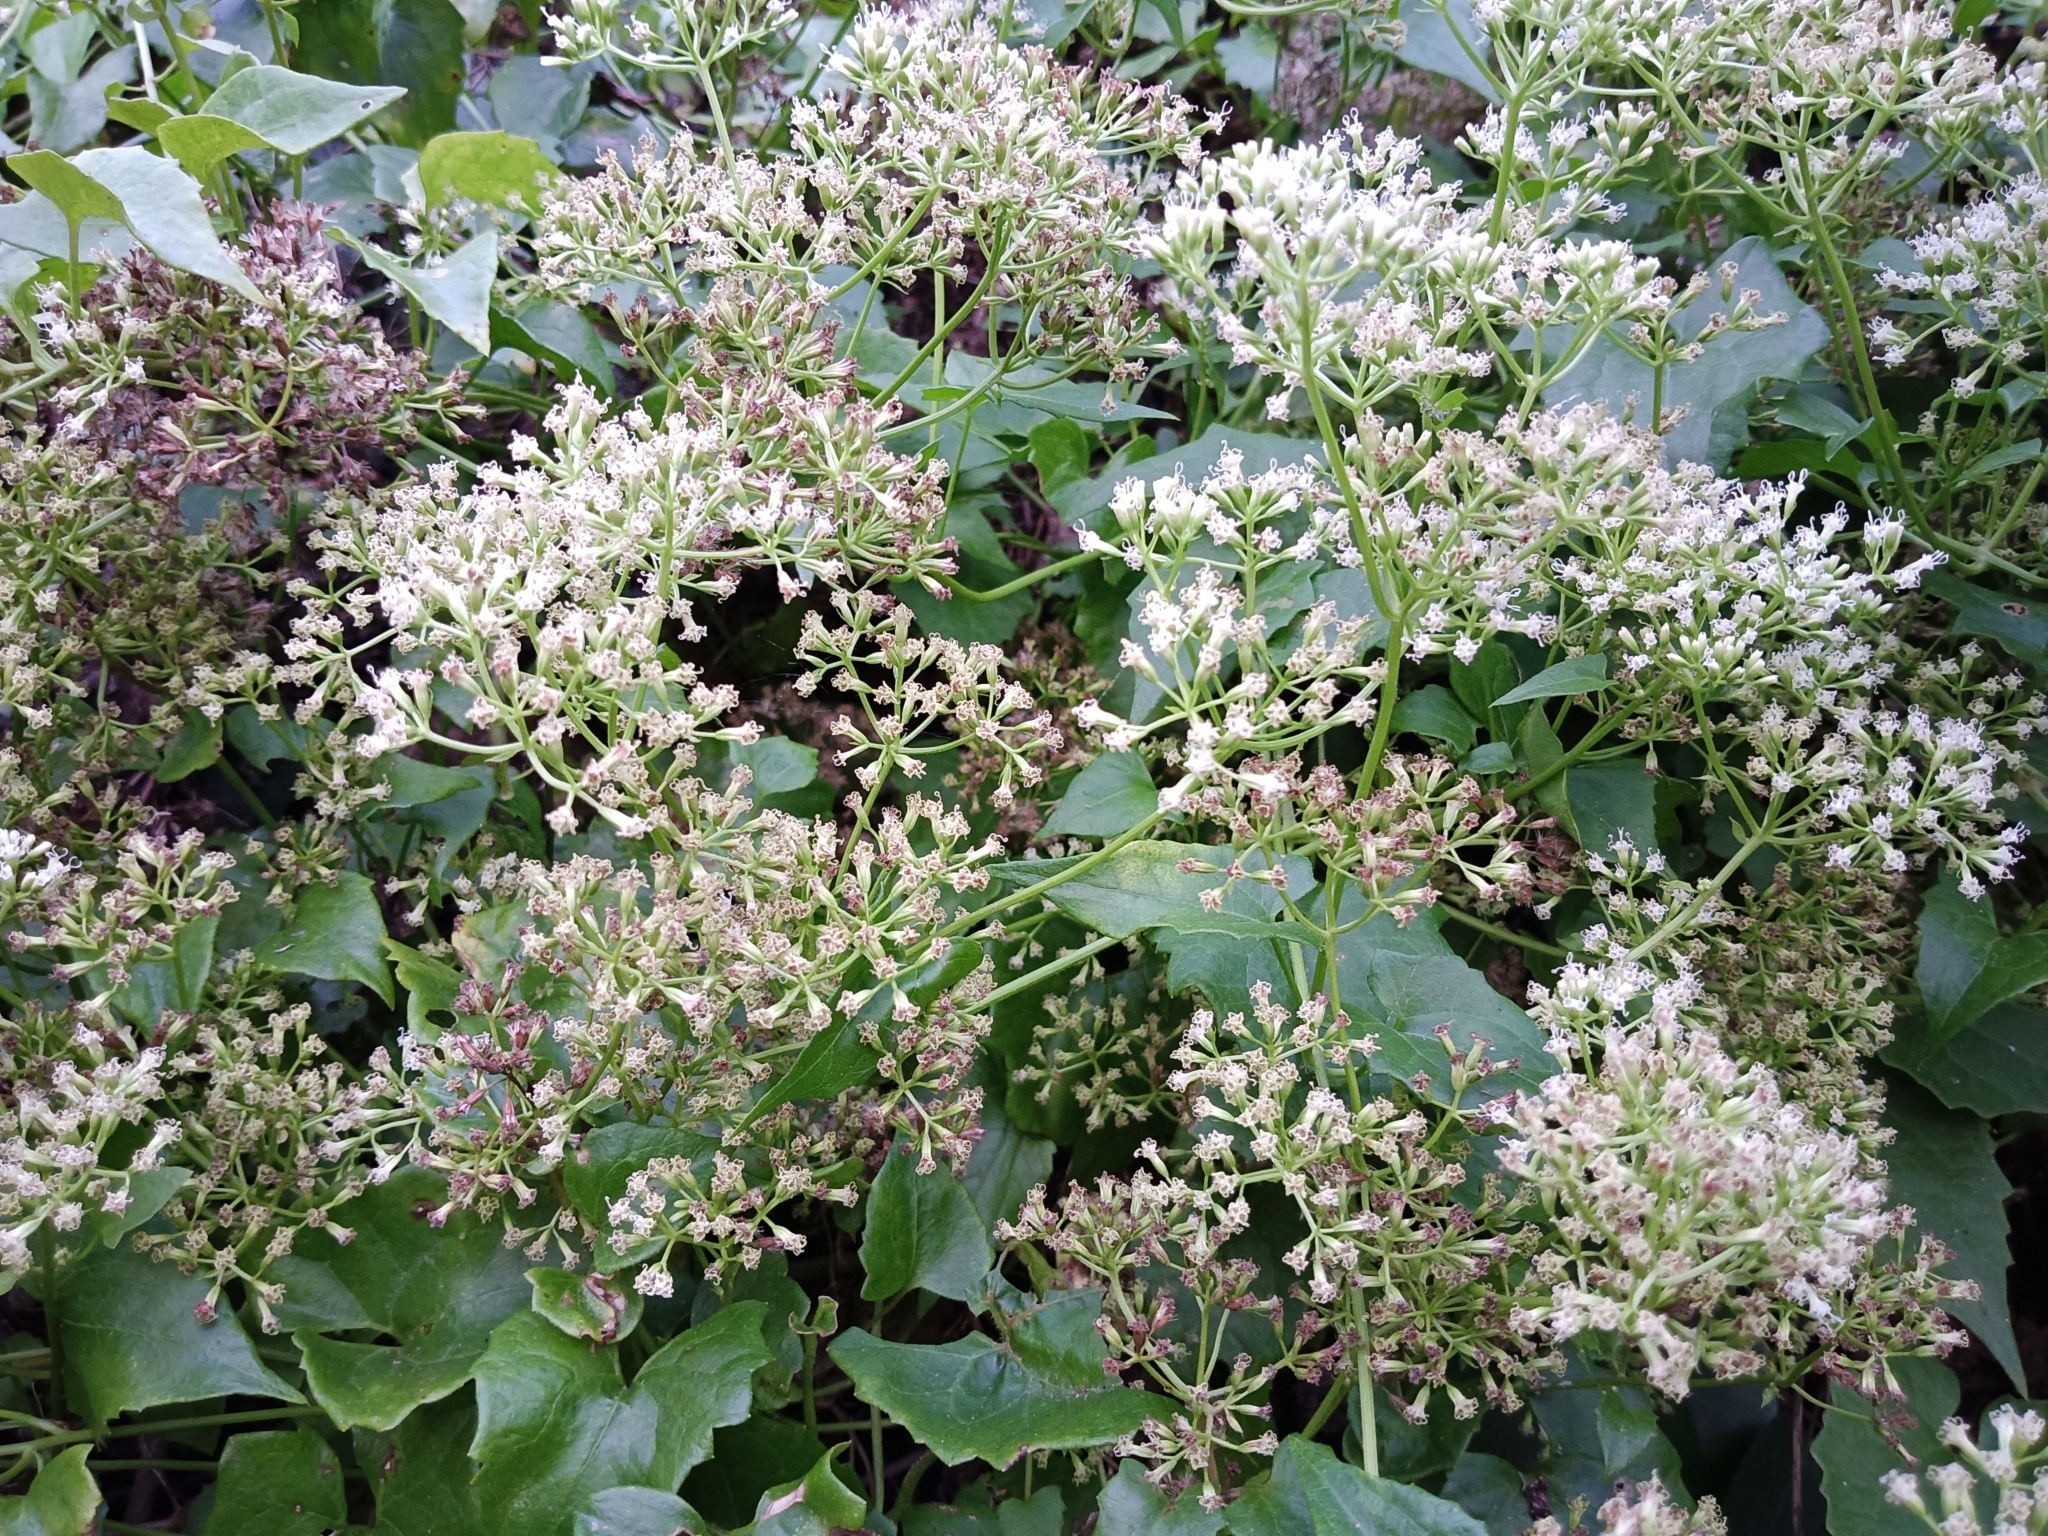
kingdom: Plantae
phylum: Tracheophyta
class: Magnoliopsida
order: Asterales
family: Asteraceae
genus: Mikania
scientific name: Mikania micrantha
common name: Mile-a-minute
